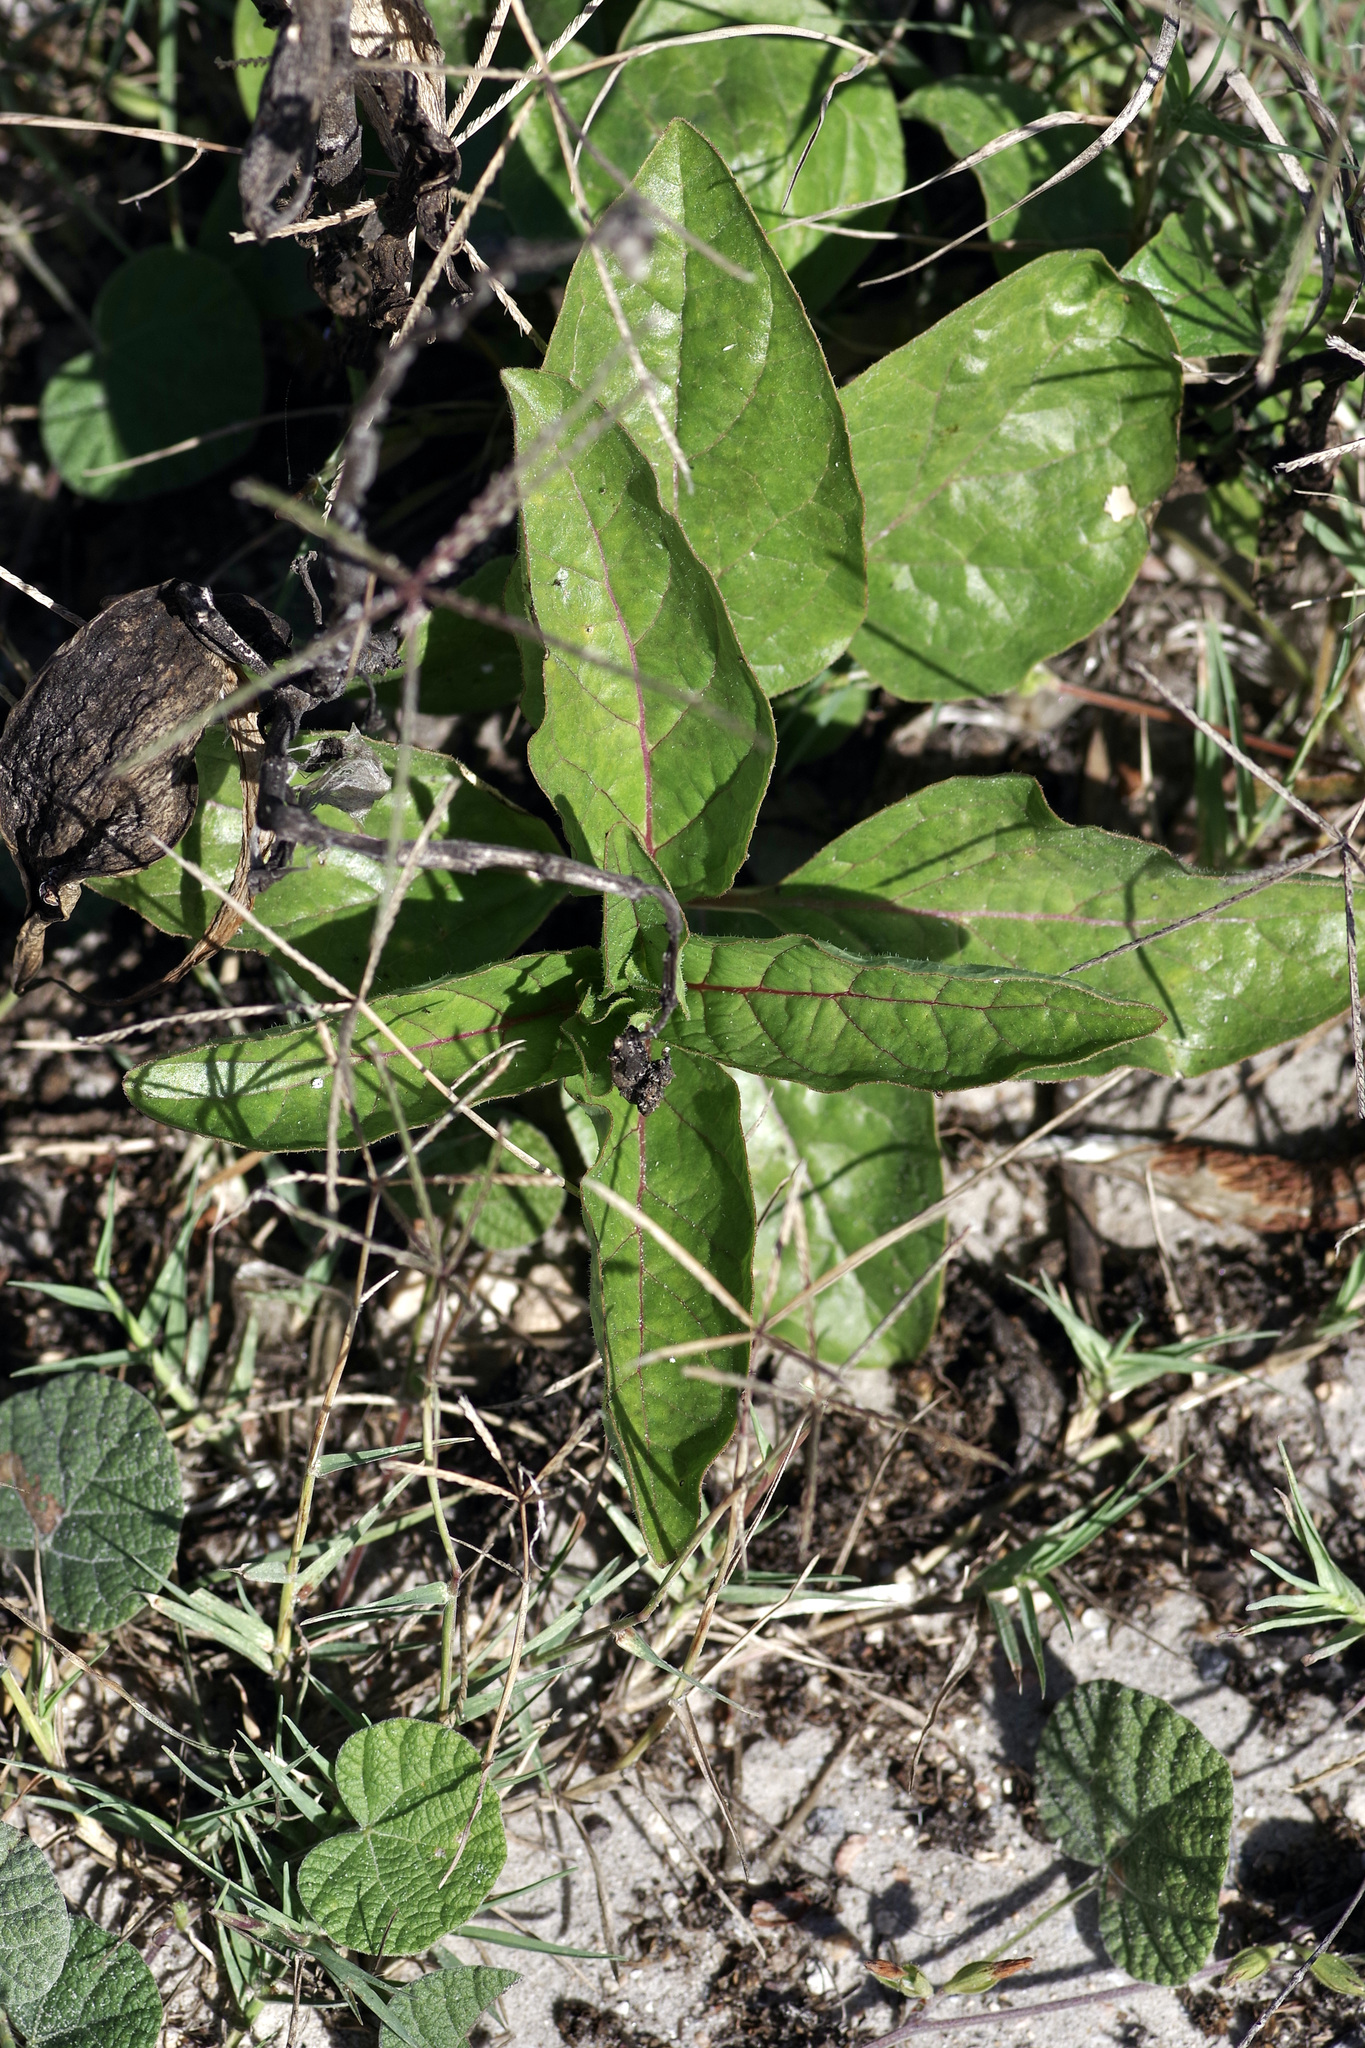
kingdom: Plantae
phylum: Tracheophyta
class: Magnoliopsida
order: Gentianales
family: Apocynaceae
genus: Asclepias
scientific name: Asclepias oenotheroides
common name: Zizotes milkweed
